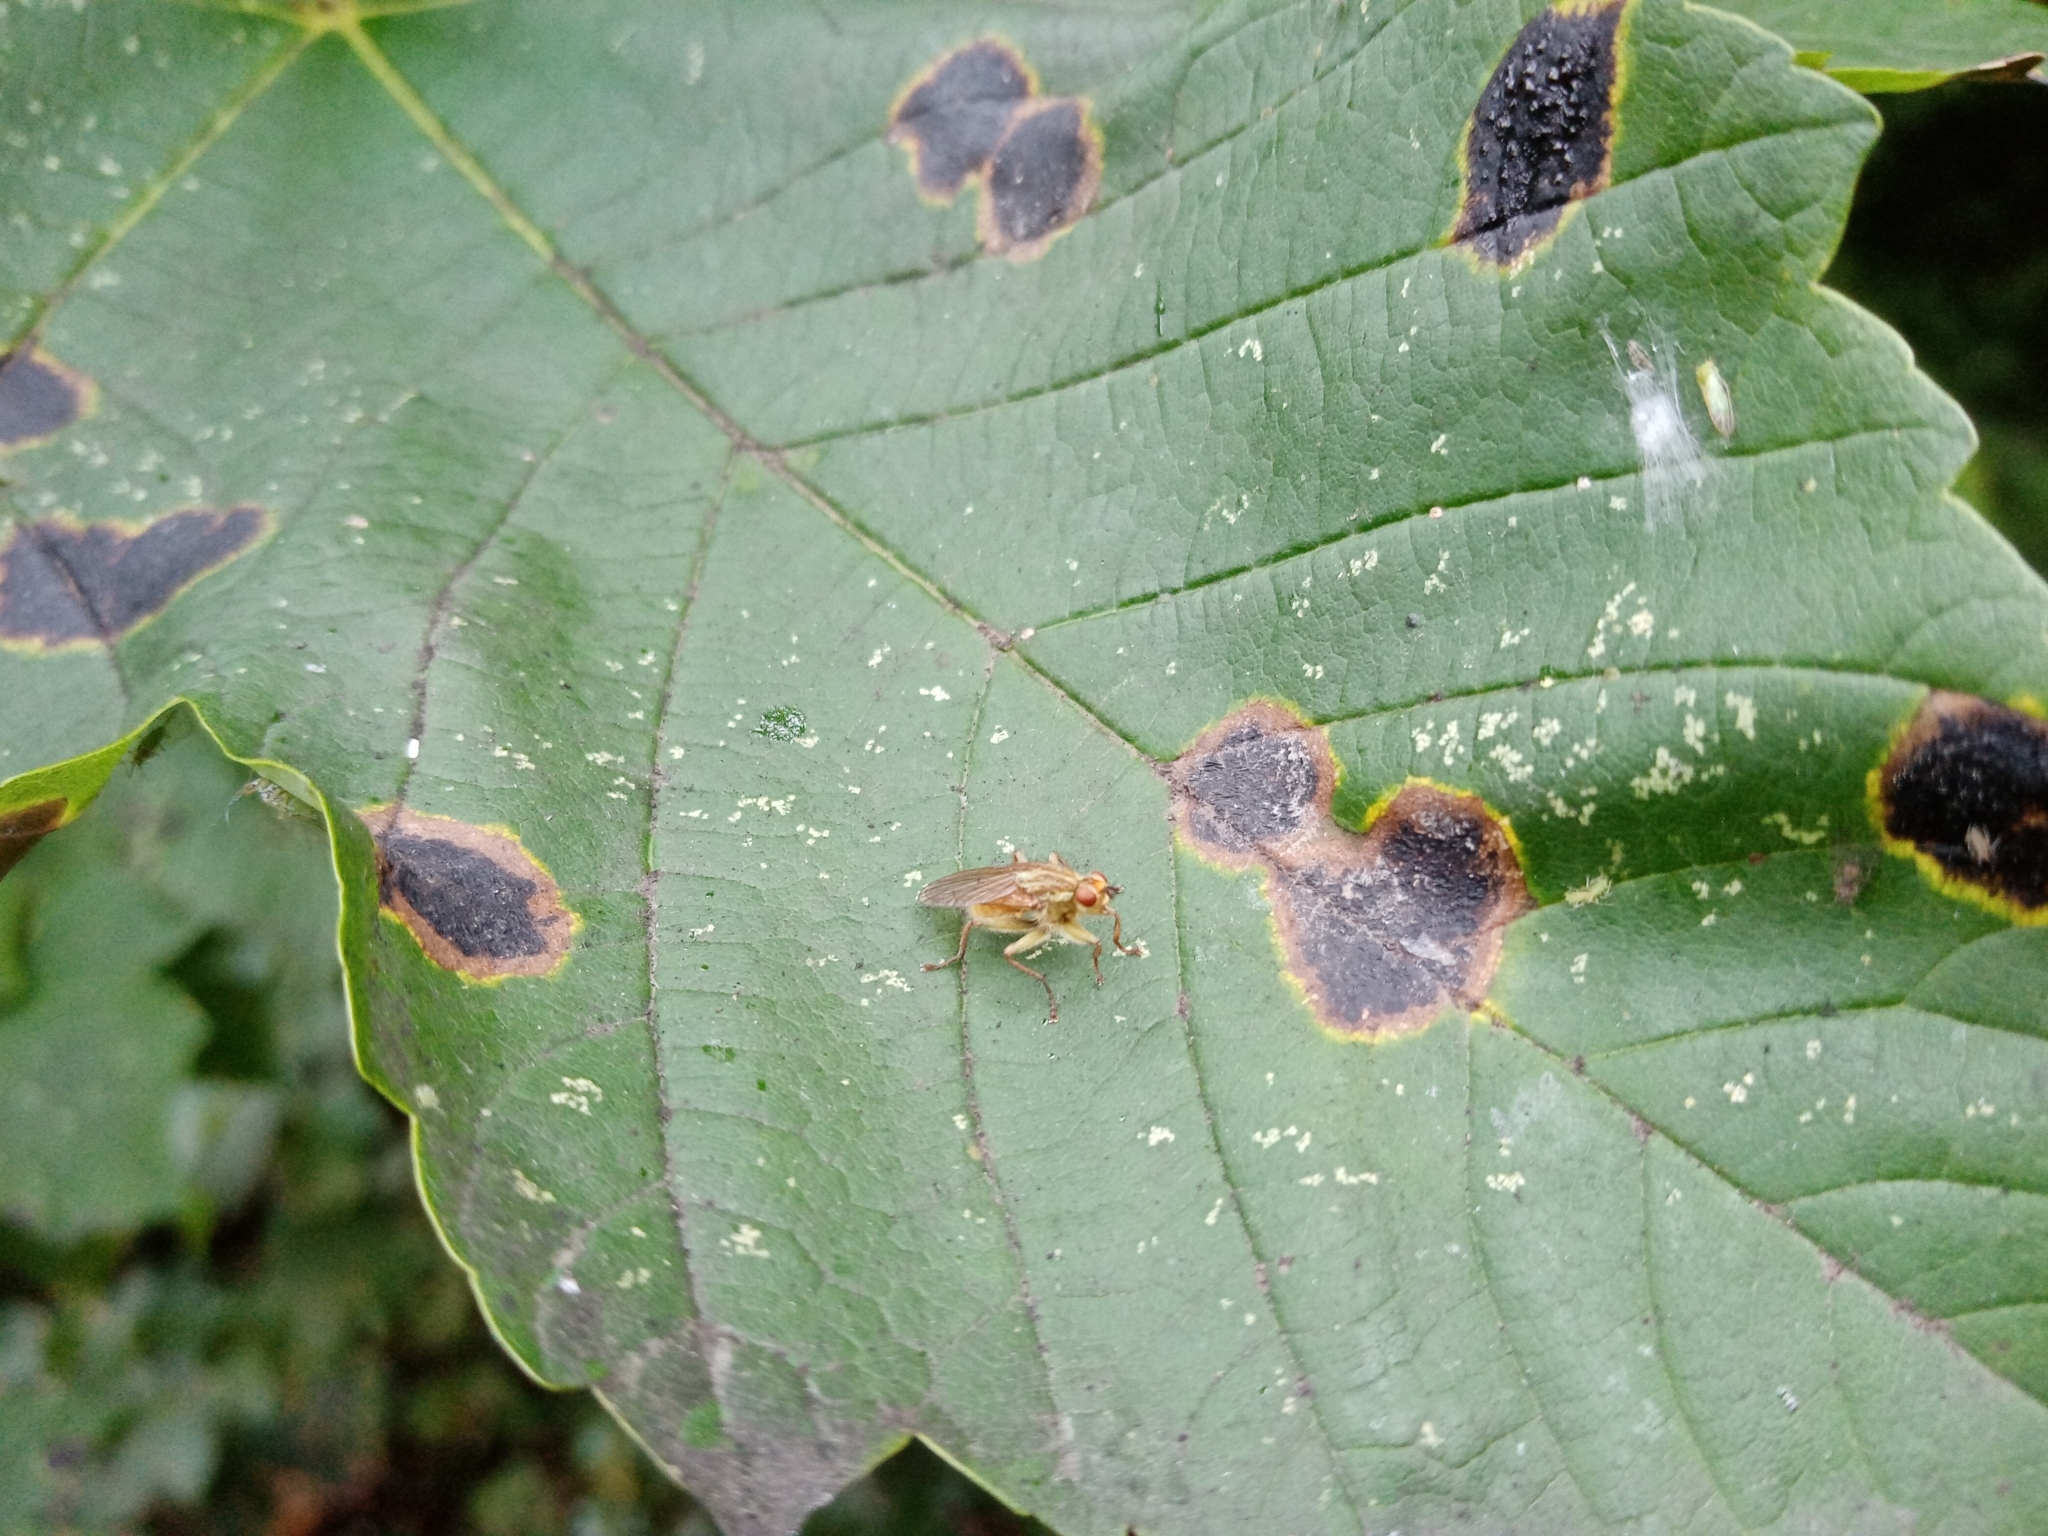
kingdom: Animalia
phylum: Arthropoda
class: Insecta
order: Diptera
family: Scathophagidae
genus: Scathophaga
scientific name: Scathophaga stercoraria
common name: Yellow dung fly
